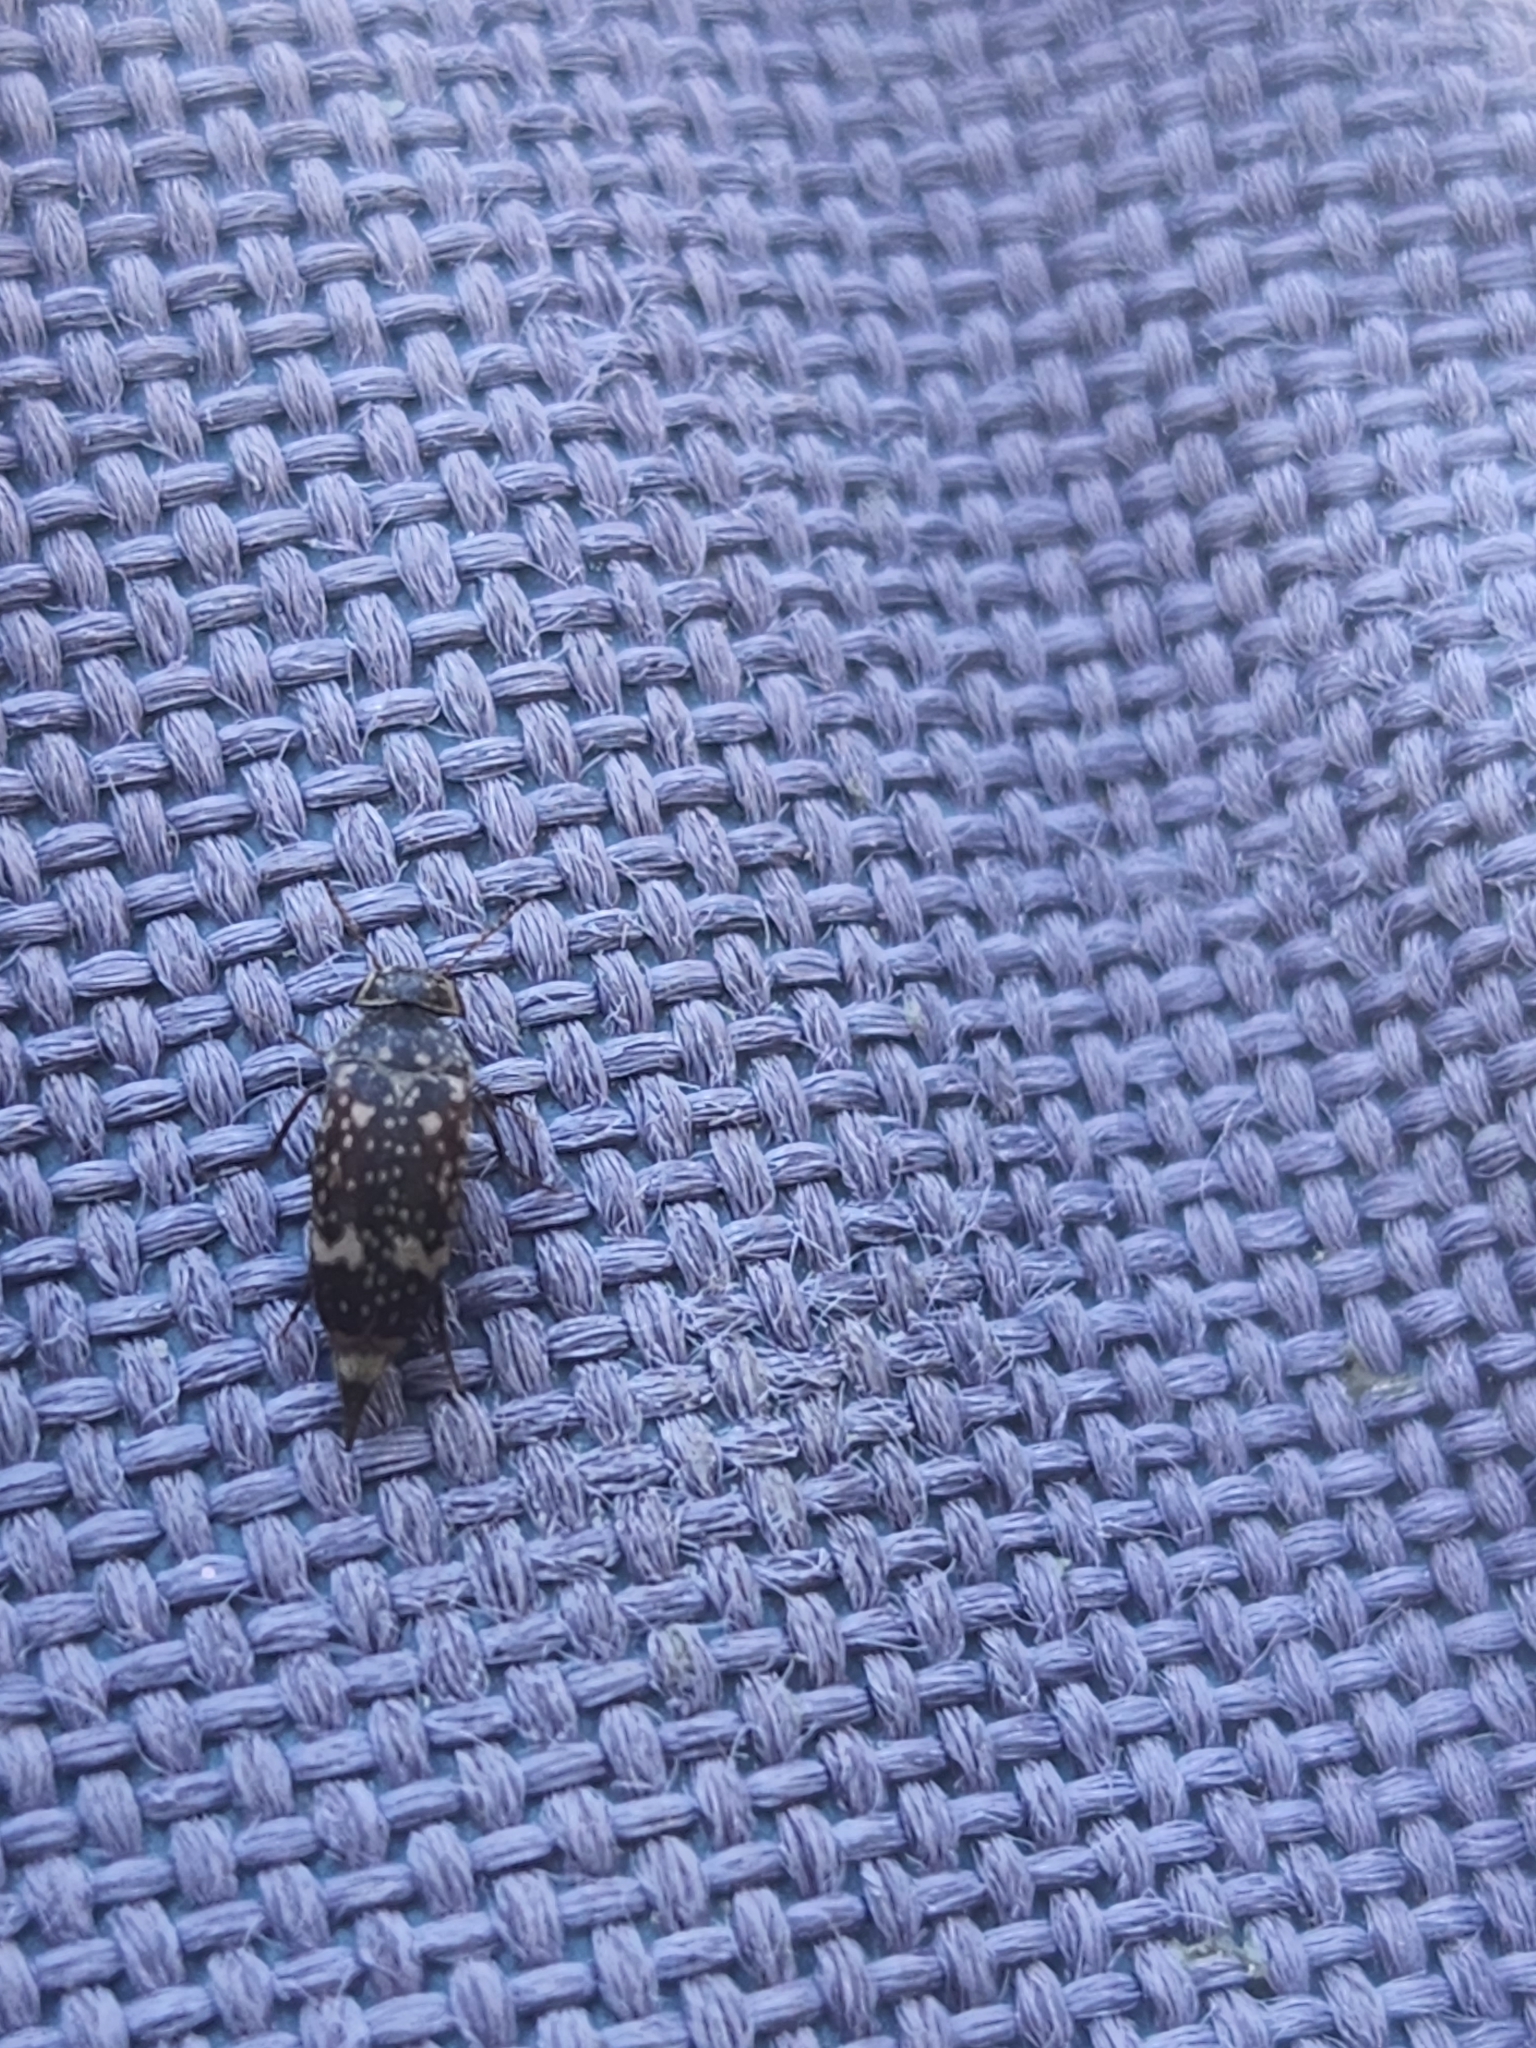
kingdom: Animalia
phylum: Arthropoda
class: Insecta
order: Coleoptera
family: Mordellidae
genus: Mordellaria
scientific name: Mordellaria serval
